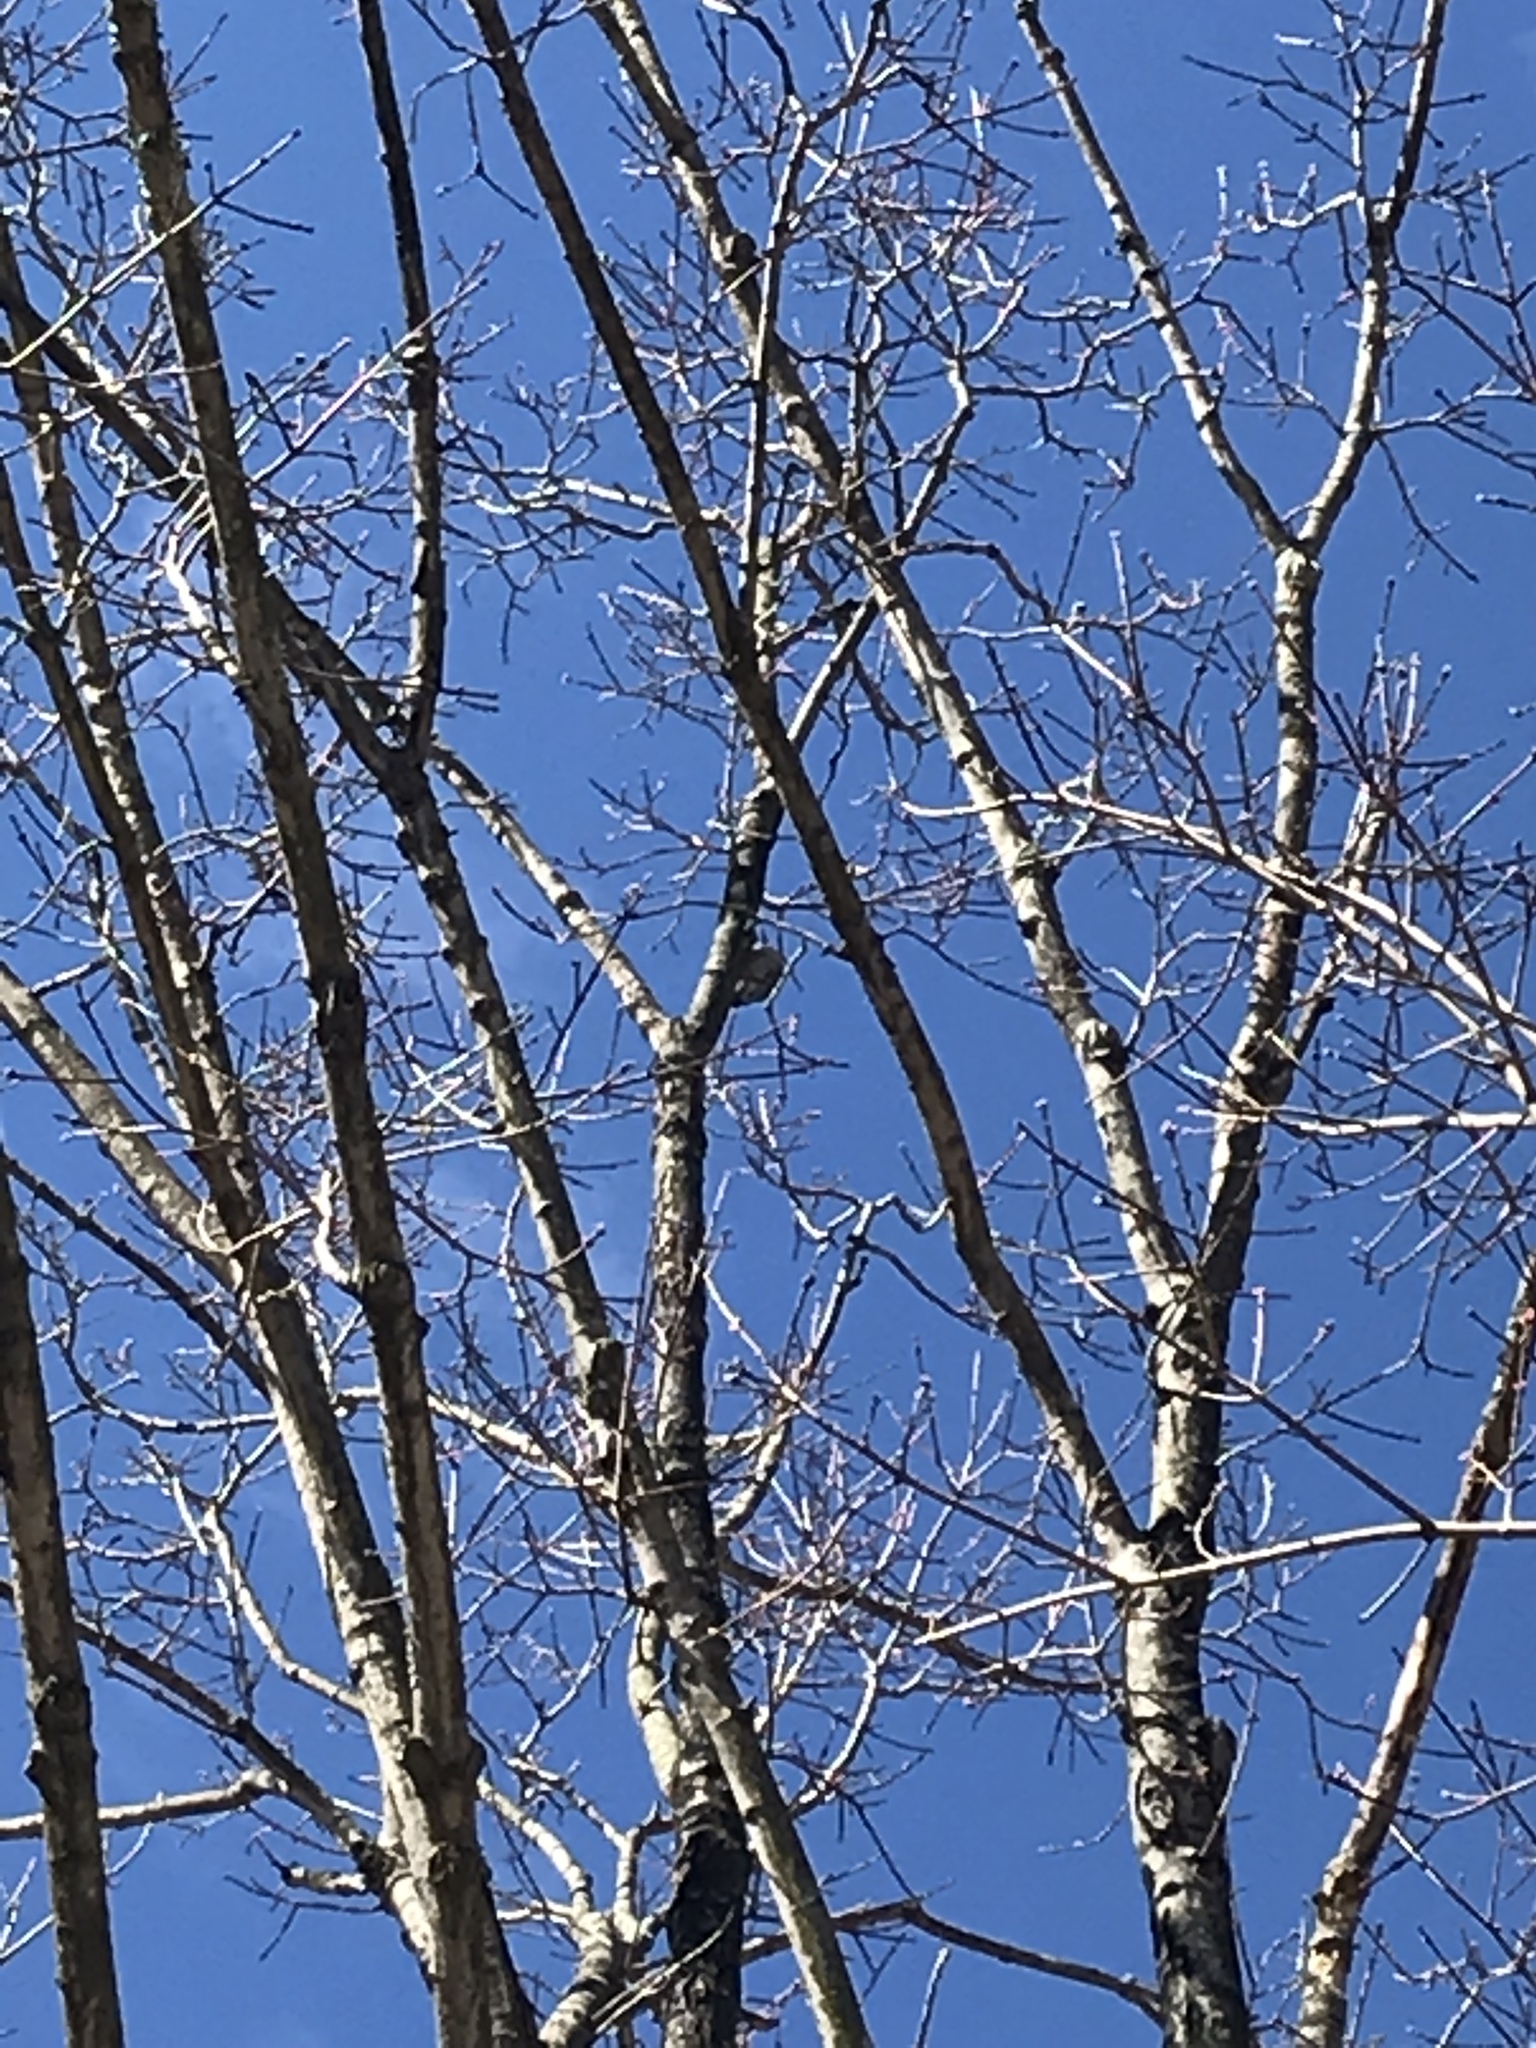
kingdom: Animalia
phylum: Chordata
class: Aves
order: Piciformes
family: Picidae
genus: Melanerpes
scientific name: Melanerpes carolinus
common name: Red-bellied woodpecker
